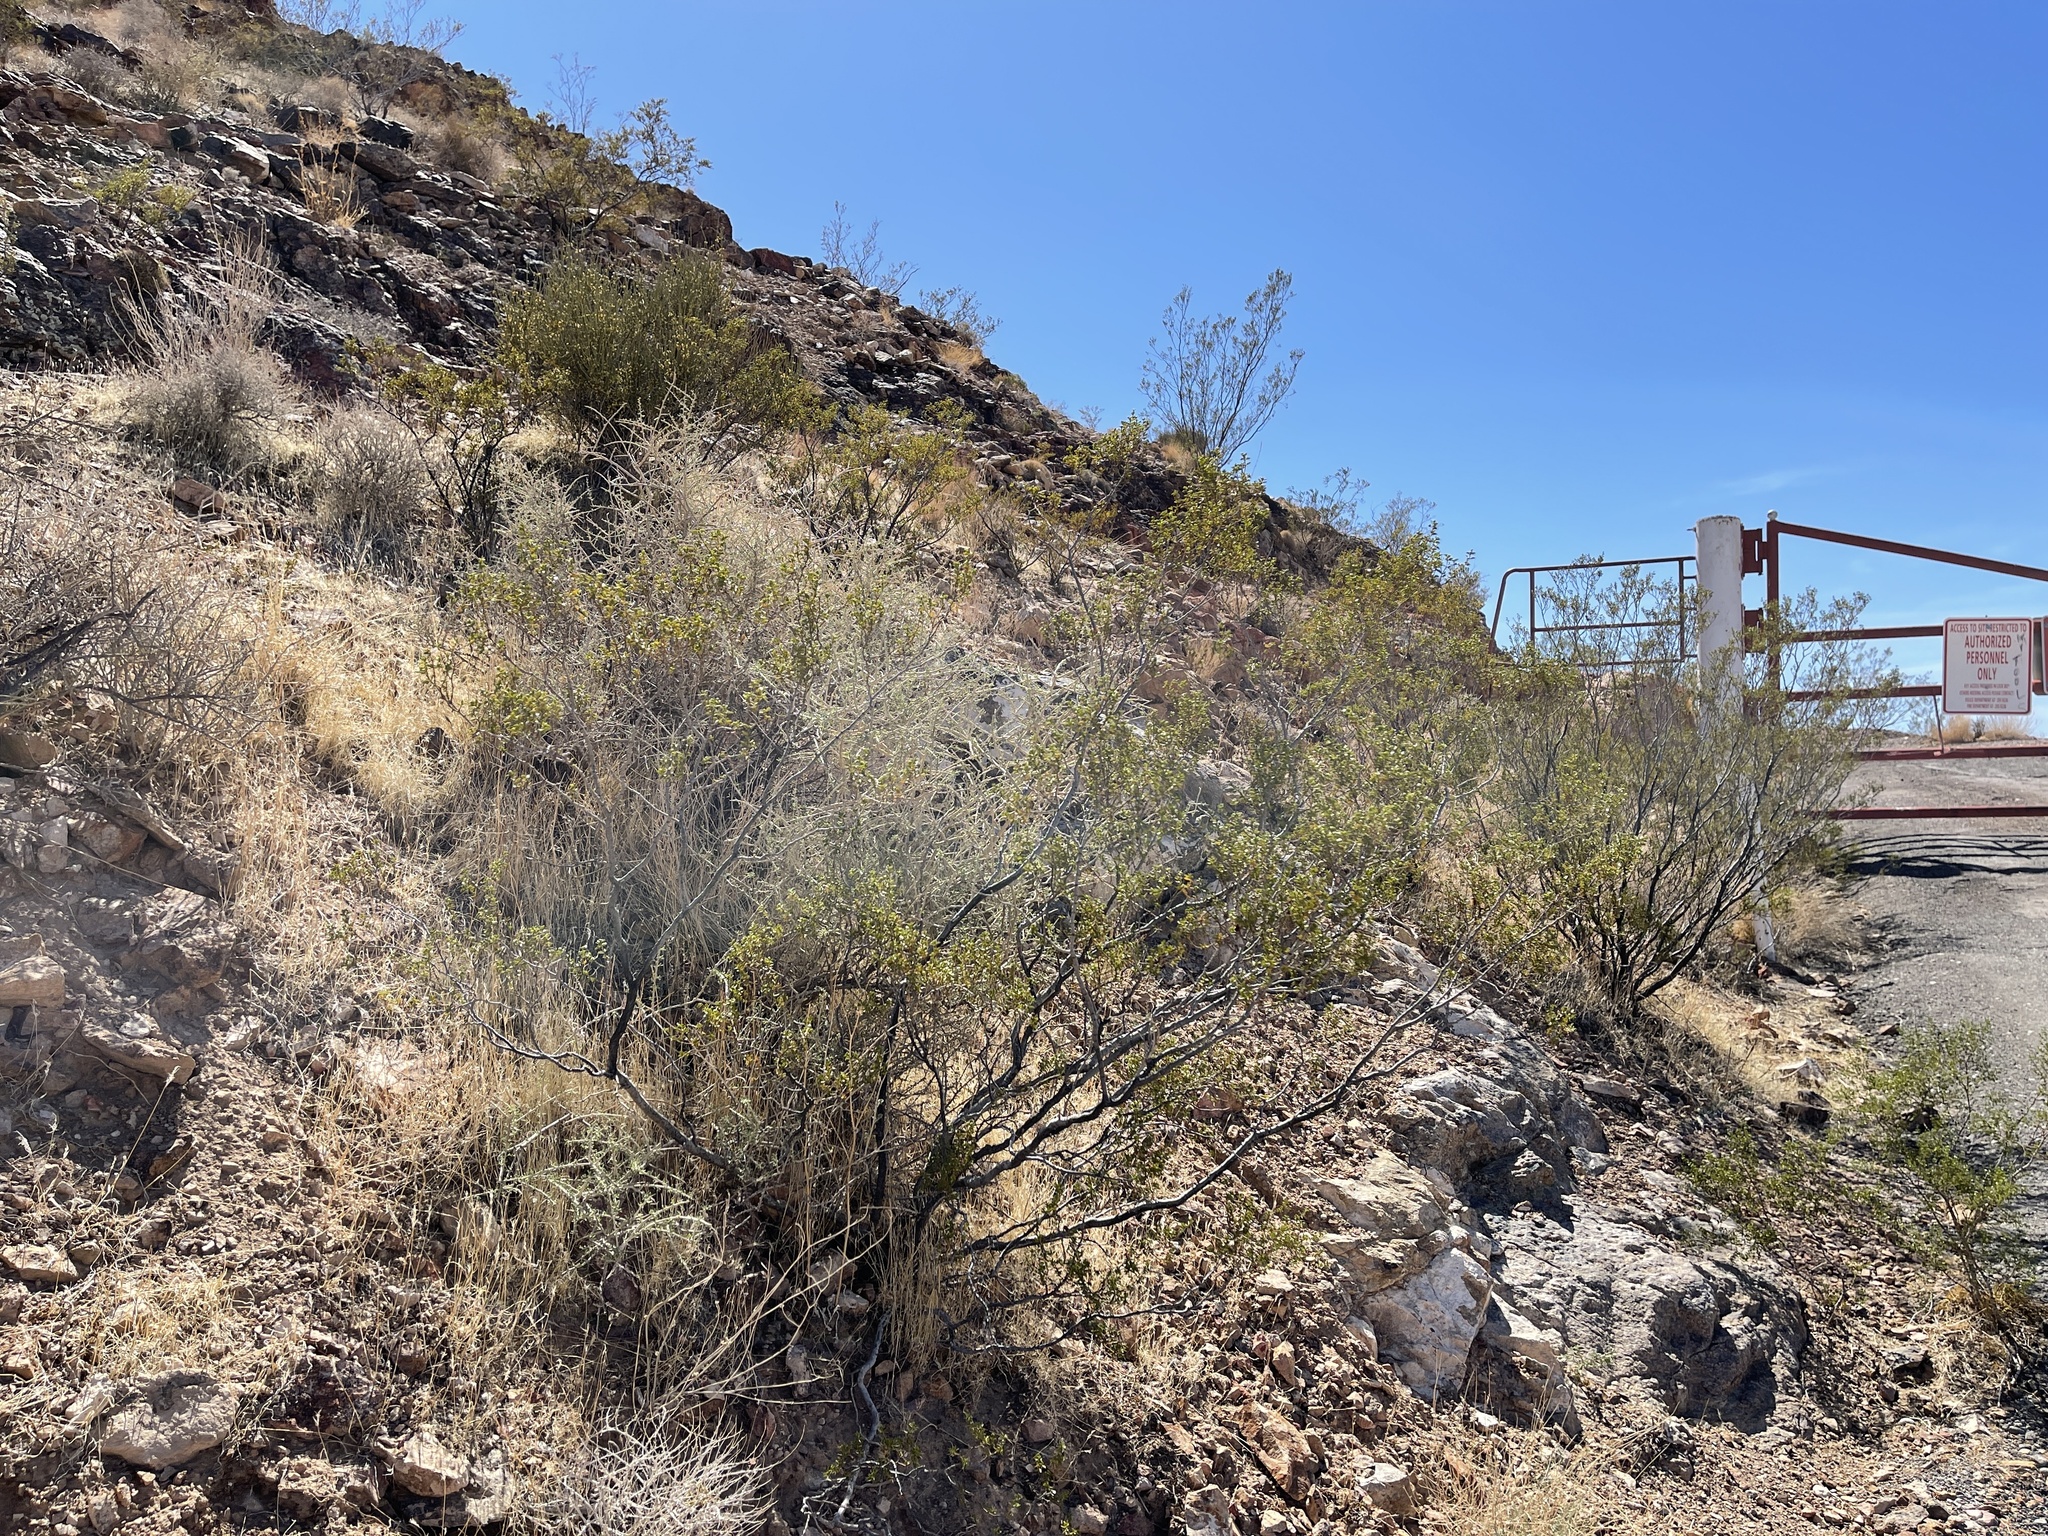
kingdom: Plantae
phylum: Tracheophyta
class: Magnoliopsida
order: Zygophyllales
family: Zygophyllaceae
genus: Larrea
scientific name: Larrea tridentata
